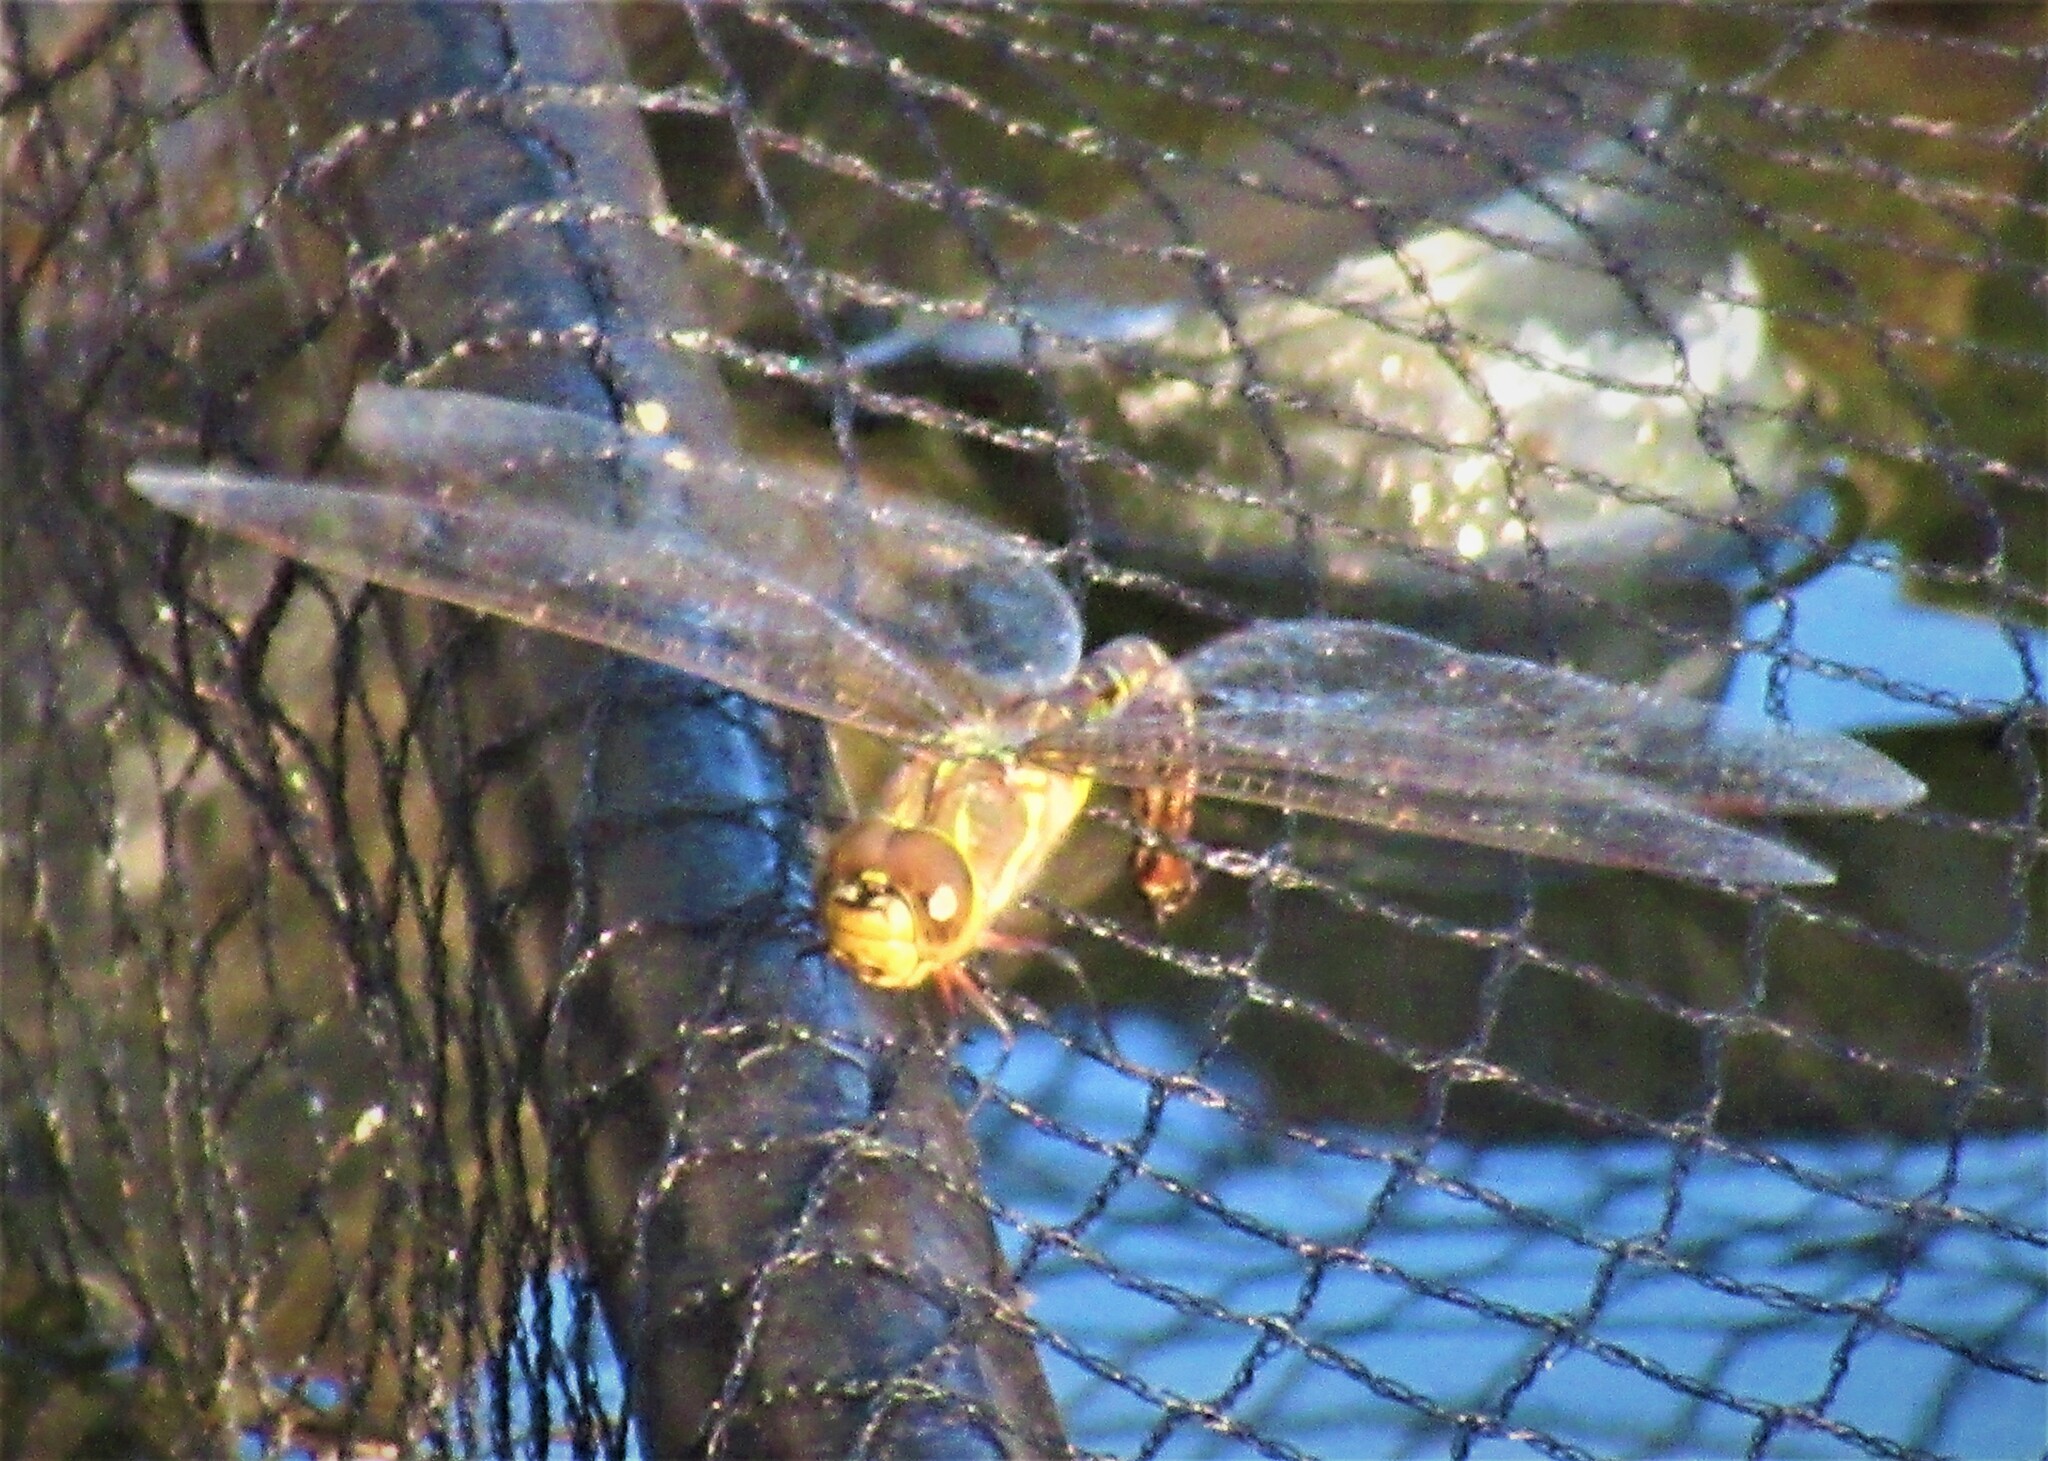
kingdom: Animalia
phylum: Arthropoda
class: Insecta
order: Odonata
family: Aeshnidae
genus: Rhionaeschna
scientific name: Rhionaeschna multicolor
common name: Blue-eyed darner
